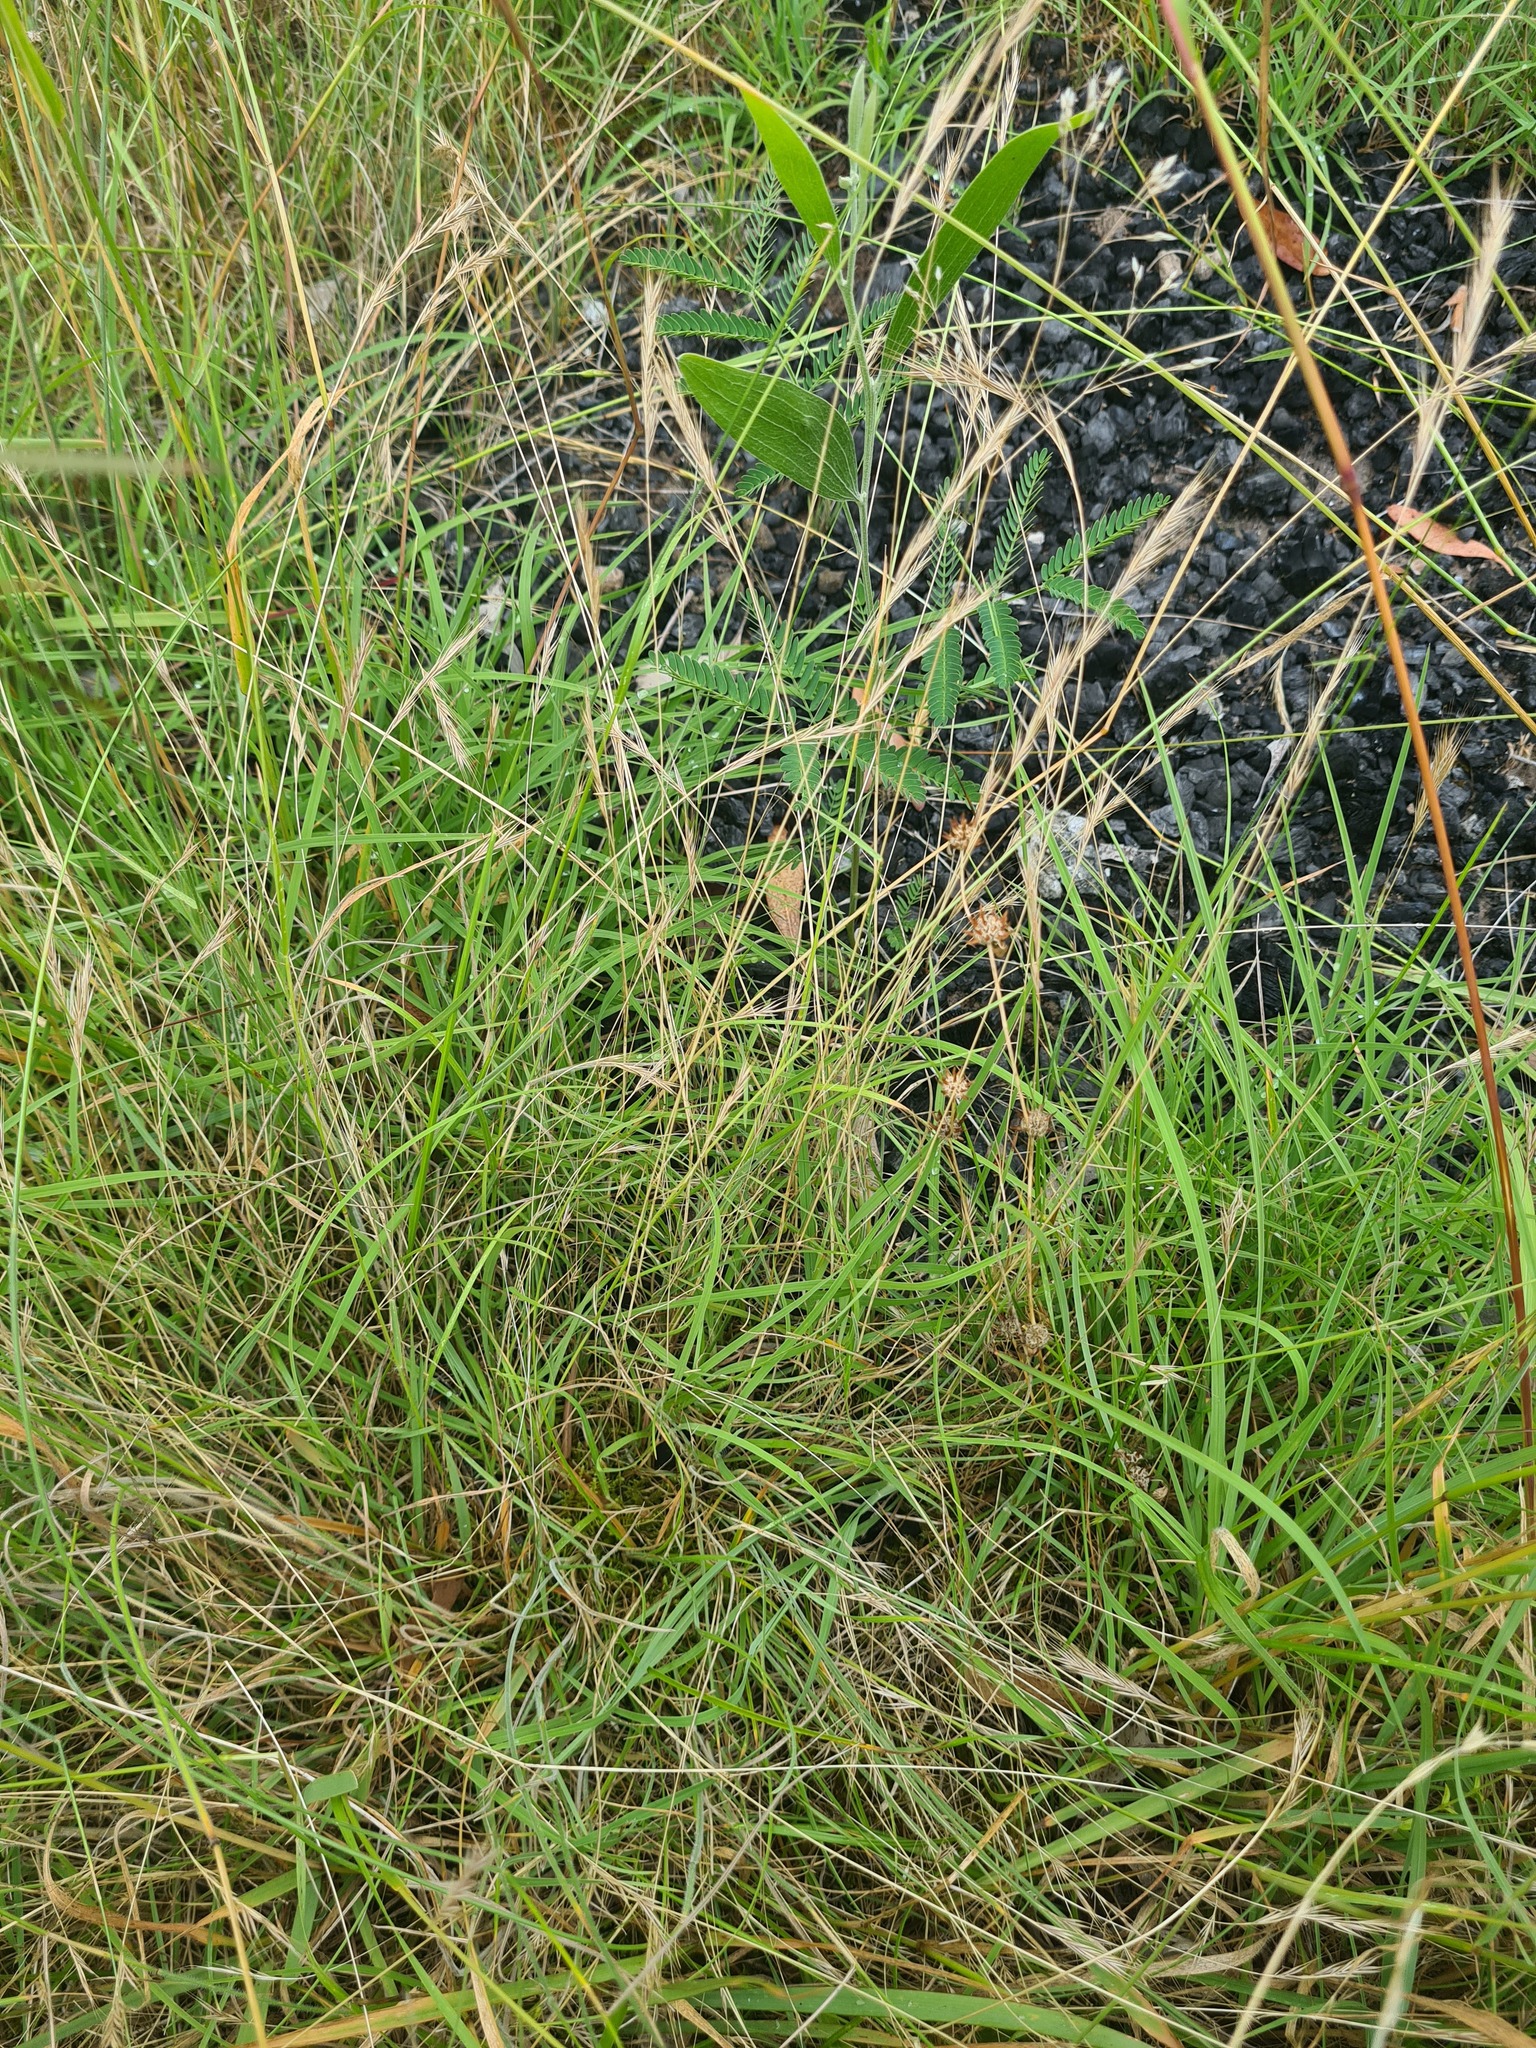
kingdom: Plantae
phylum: Tracheophyta
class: Magnoliopsida
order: Fabales
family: Fabaceae
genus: Trifolium
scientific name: Trifolium glomeratum
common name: Clustered clover
